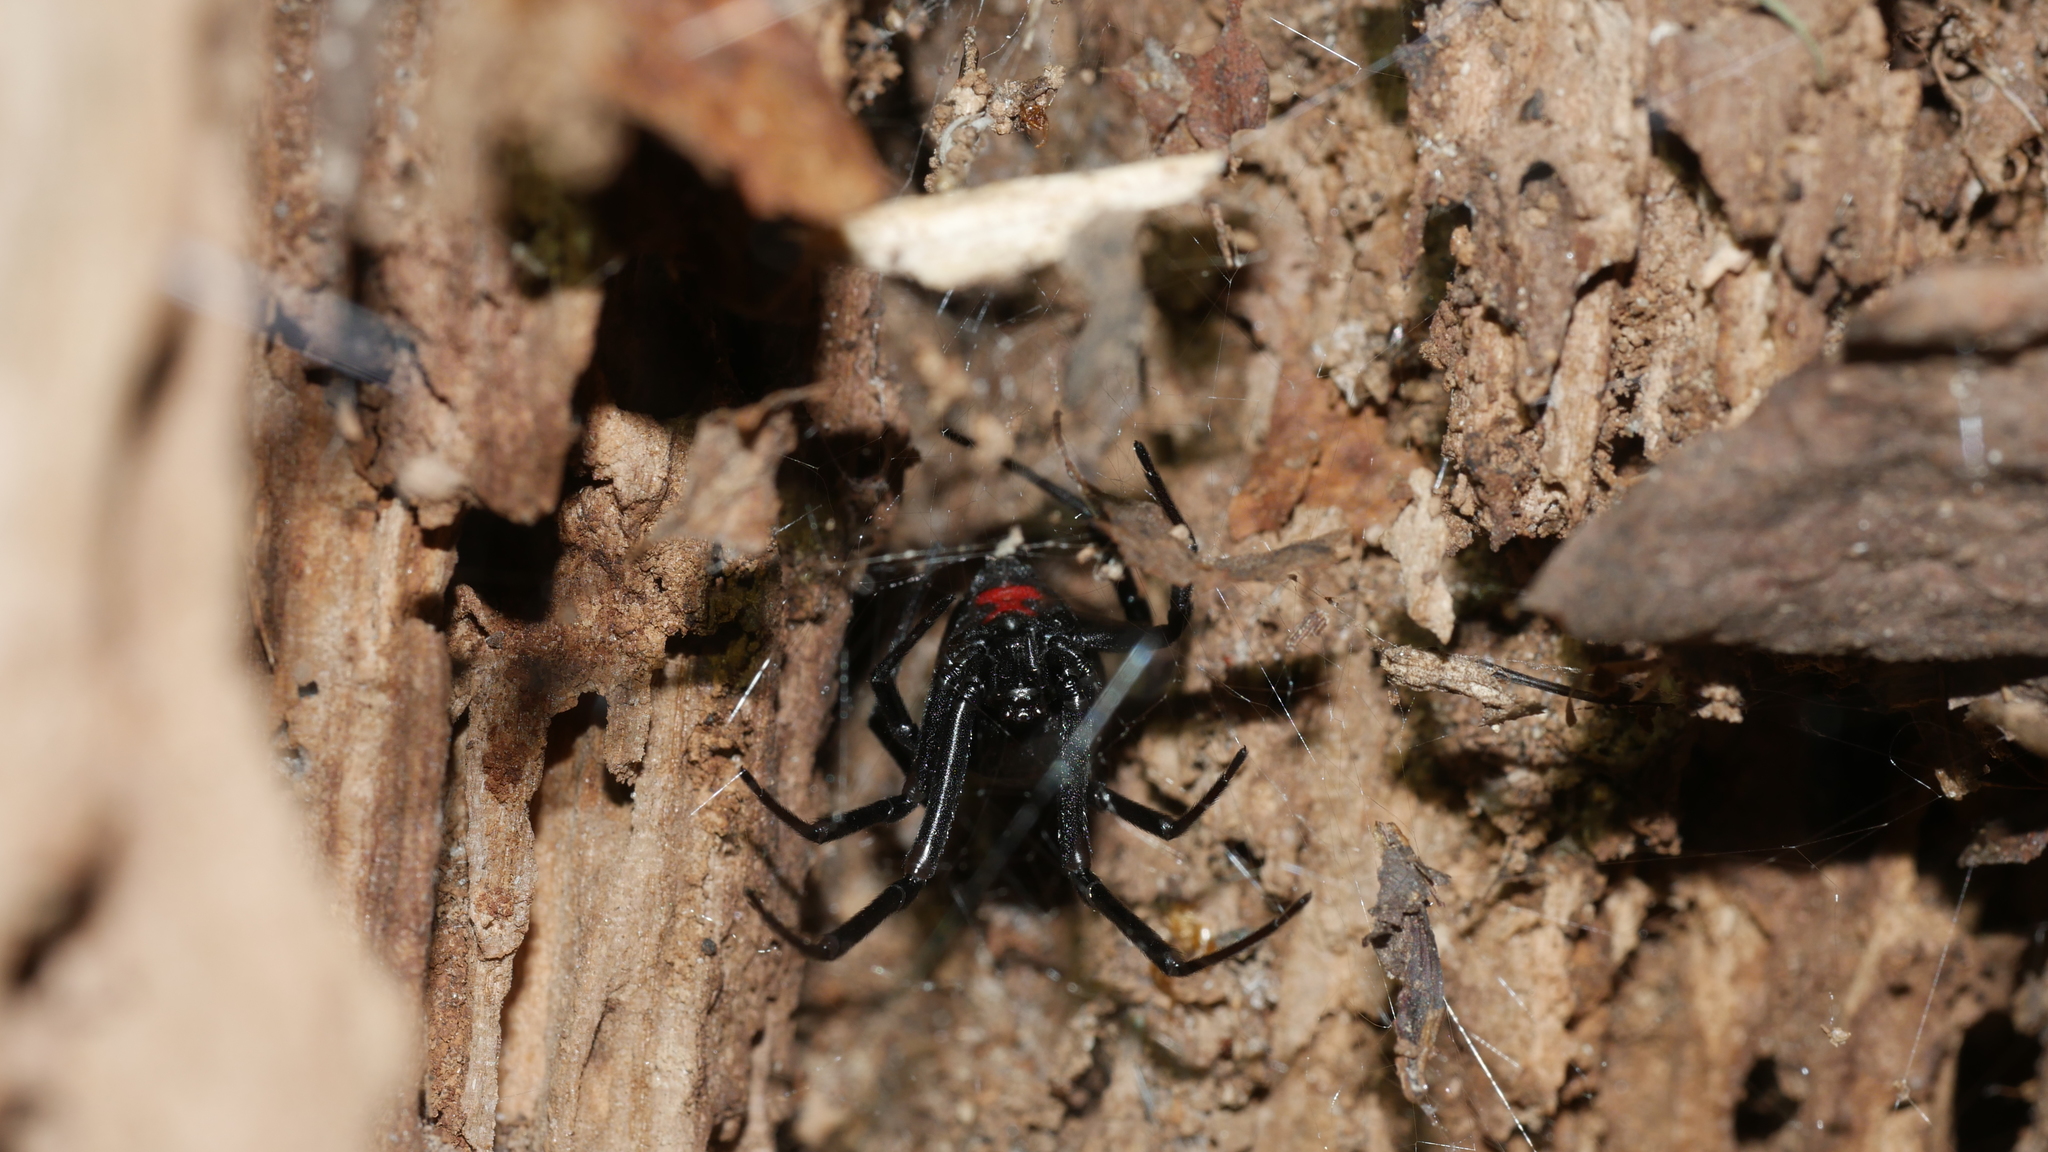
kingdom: Animalia
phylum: Arthropoda
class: Arachnida
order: Araneae
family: Theridiidae
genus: Latrodectus
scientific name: Latrodectus mactans
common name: Cobweb spiders
